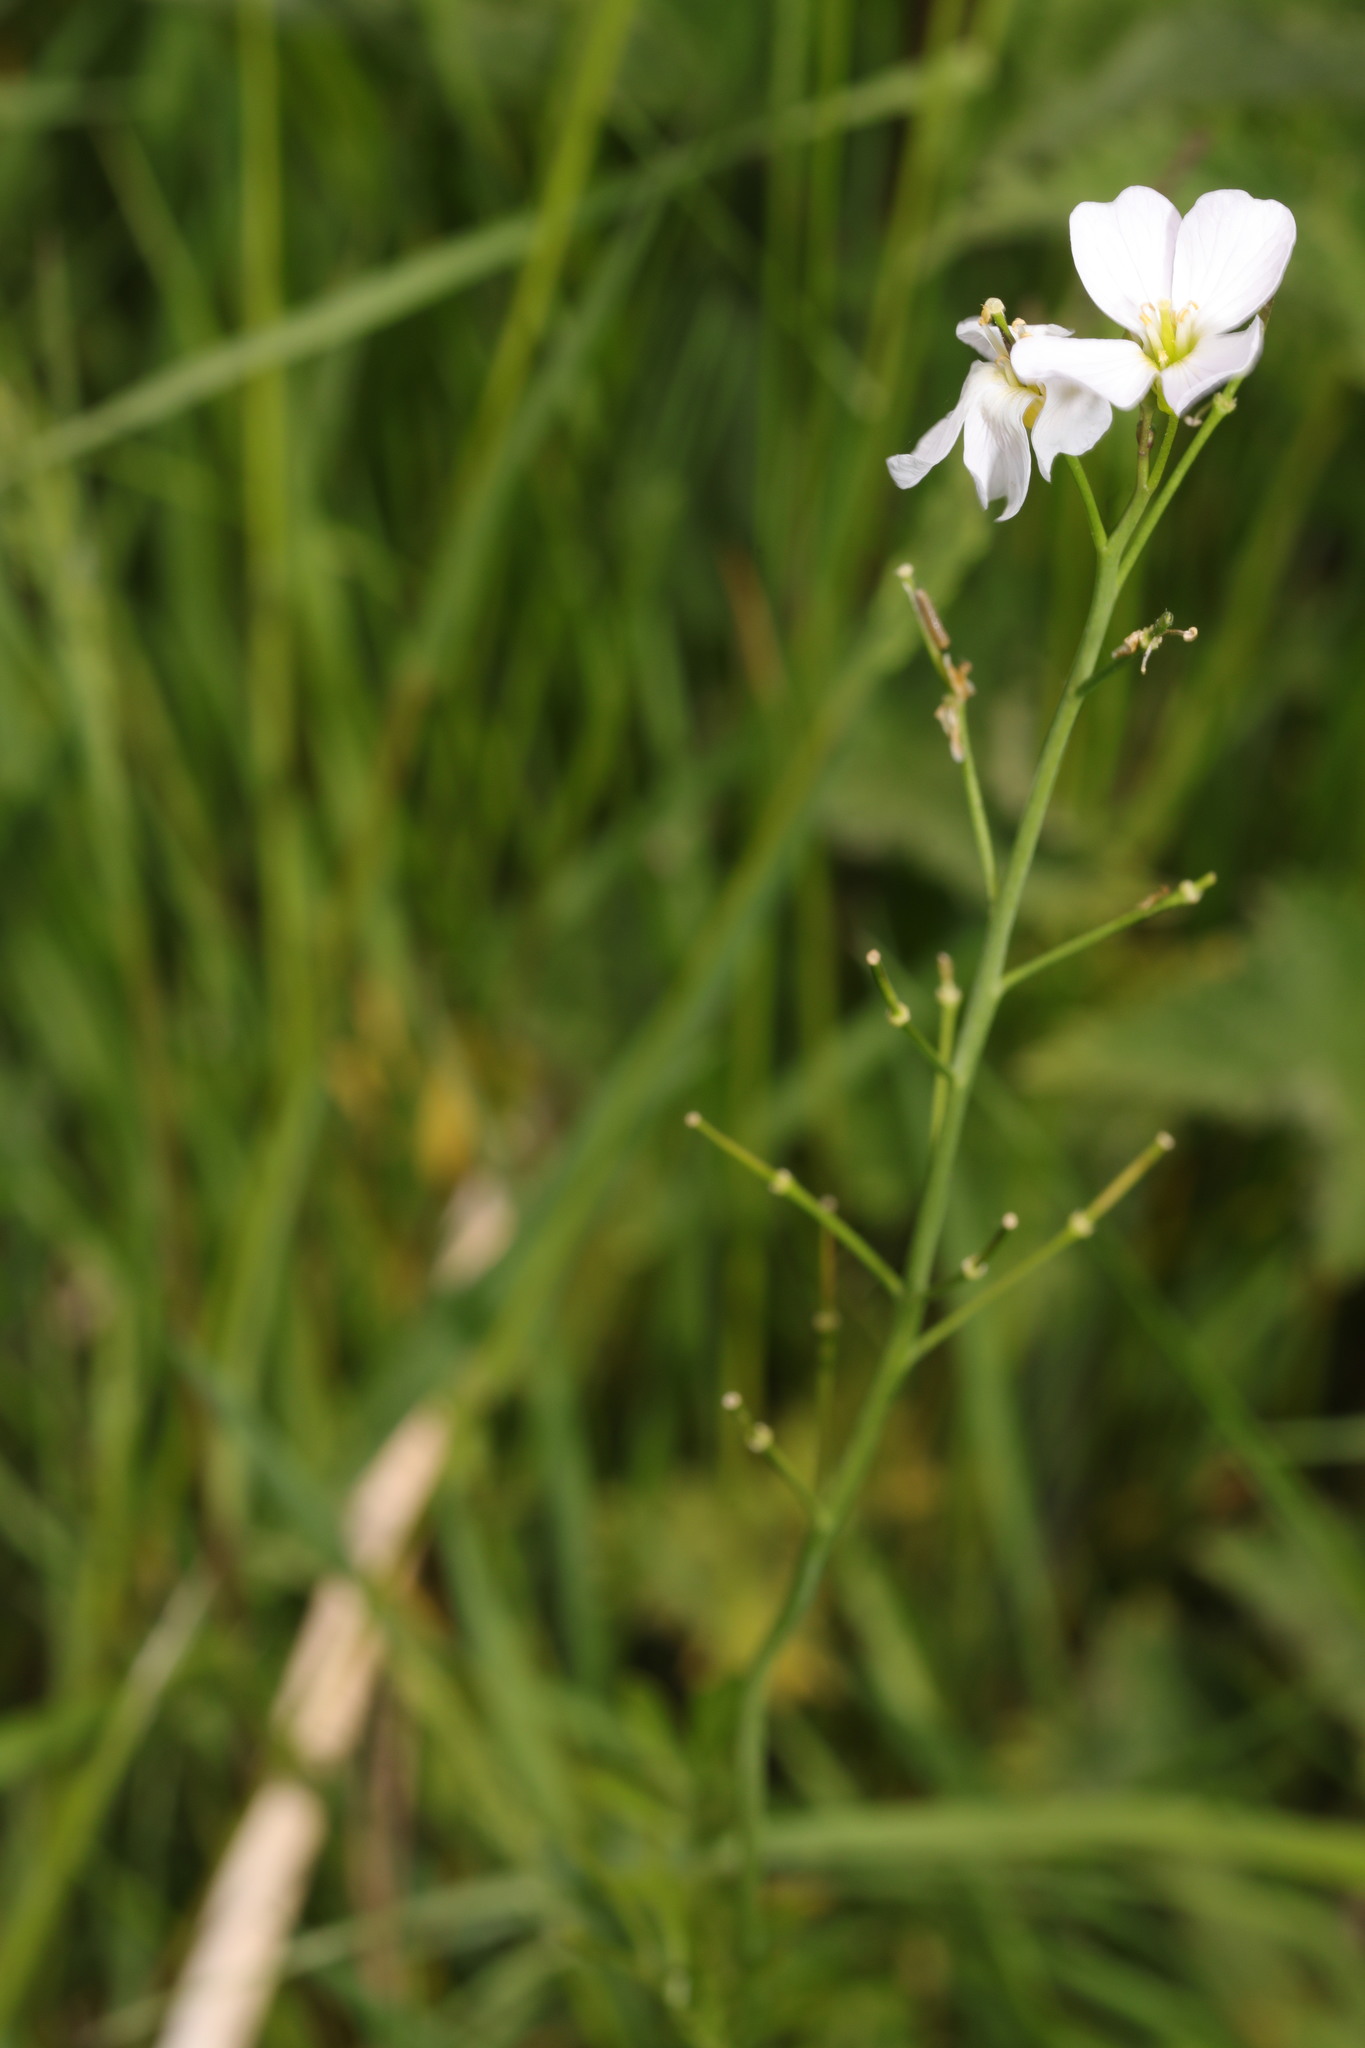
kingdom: Plantae
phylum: Tracheophyta
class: Magnoliopsida
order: Brassicales
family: Brassicaceae
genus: Cardamine
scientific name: Cardamine pratensis
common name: Cuckoo flower
